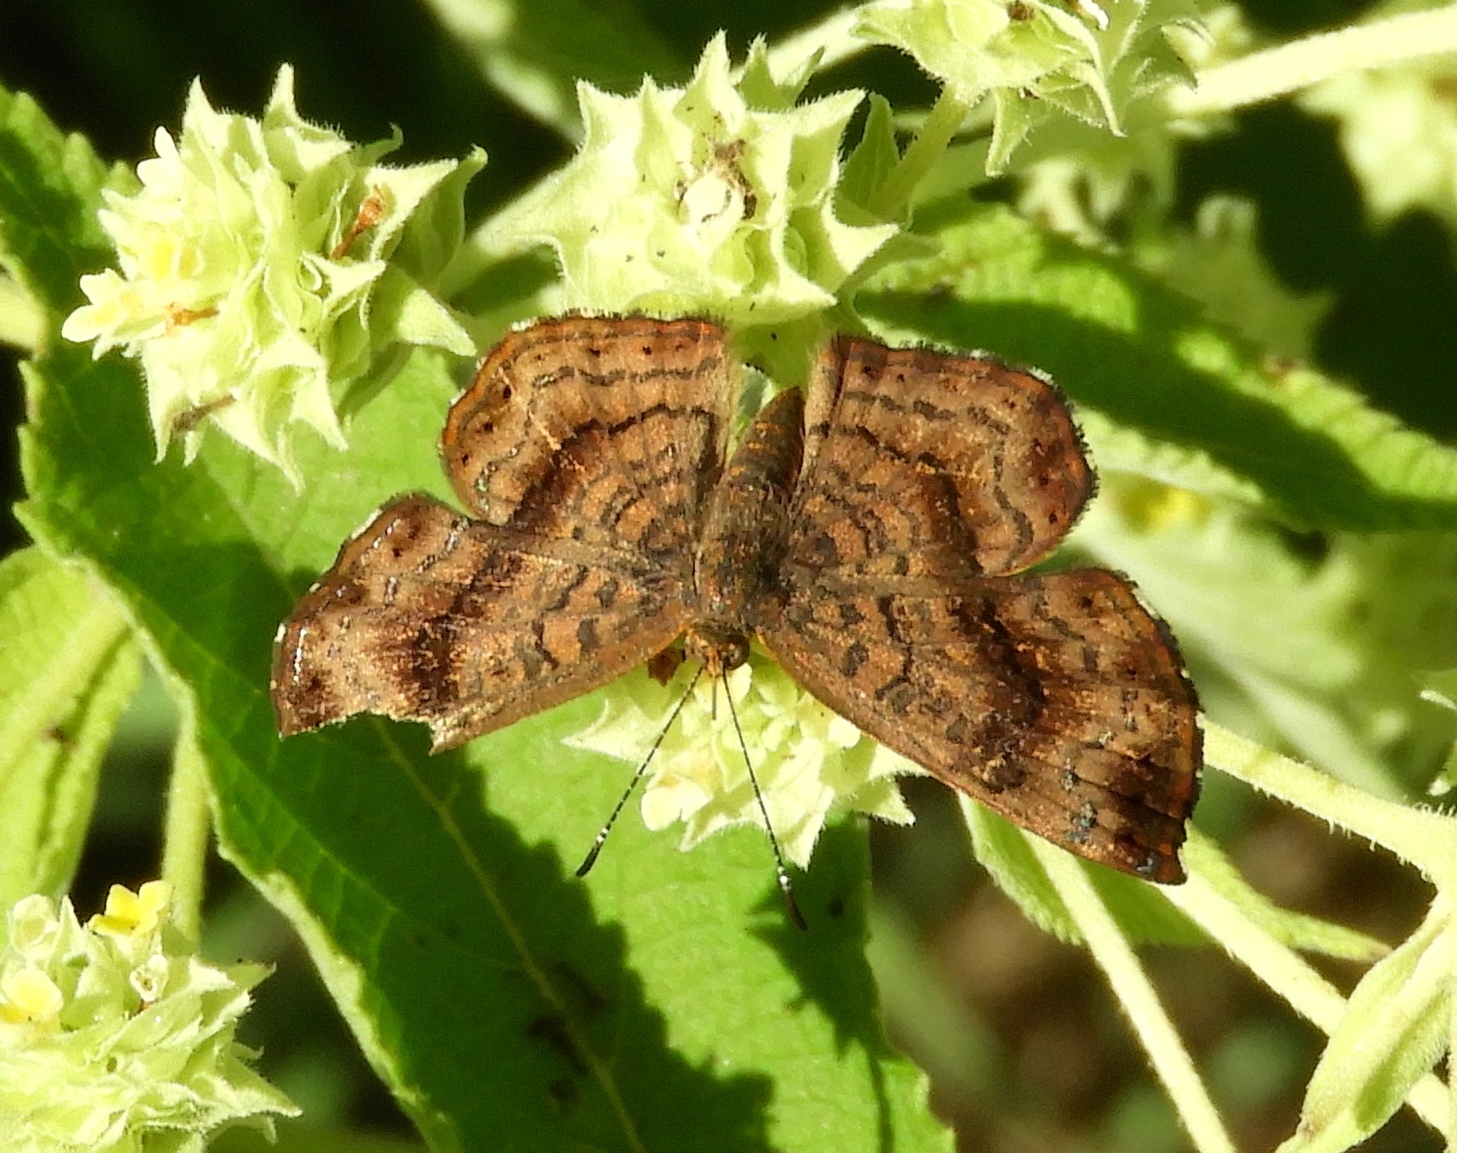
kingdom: Animalia
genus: Calephelis
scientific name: Calephelis
